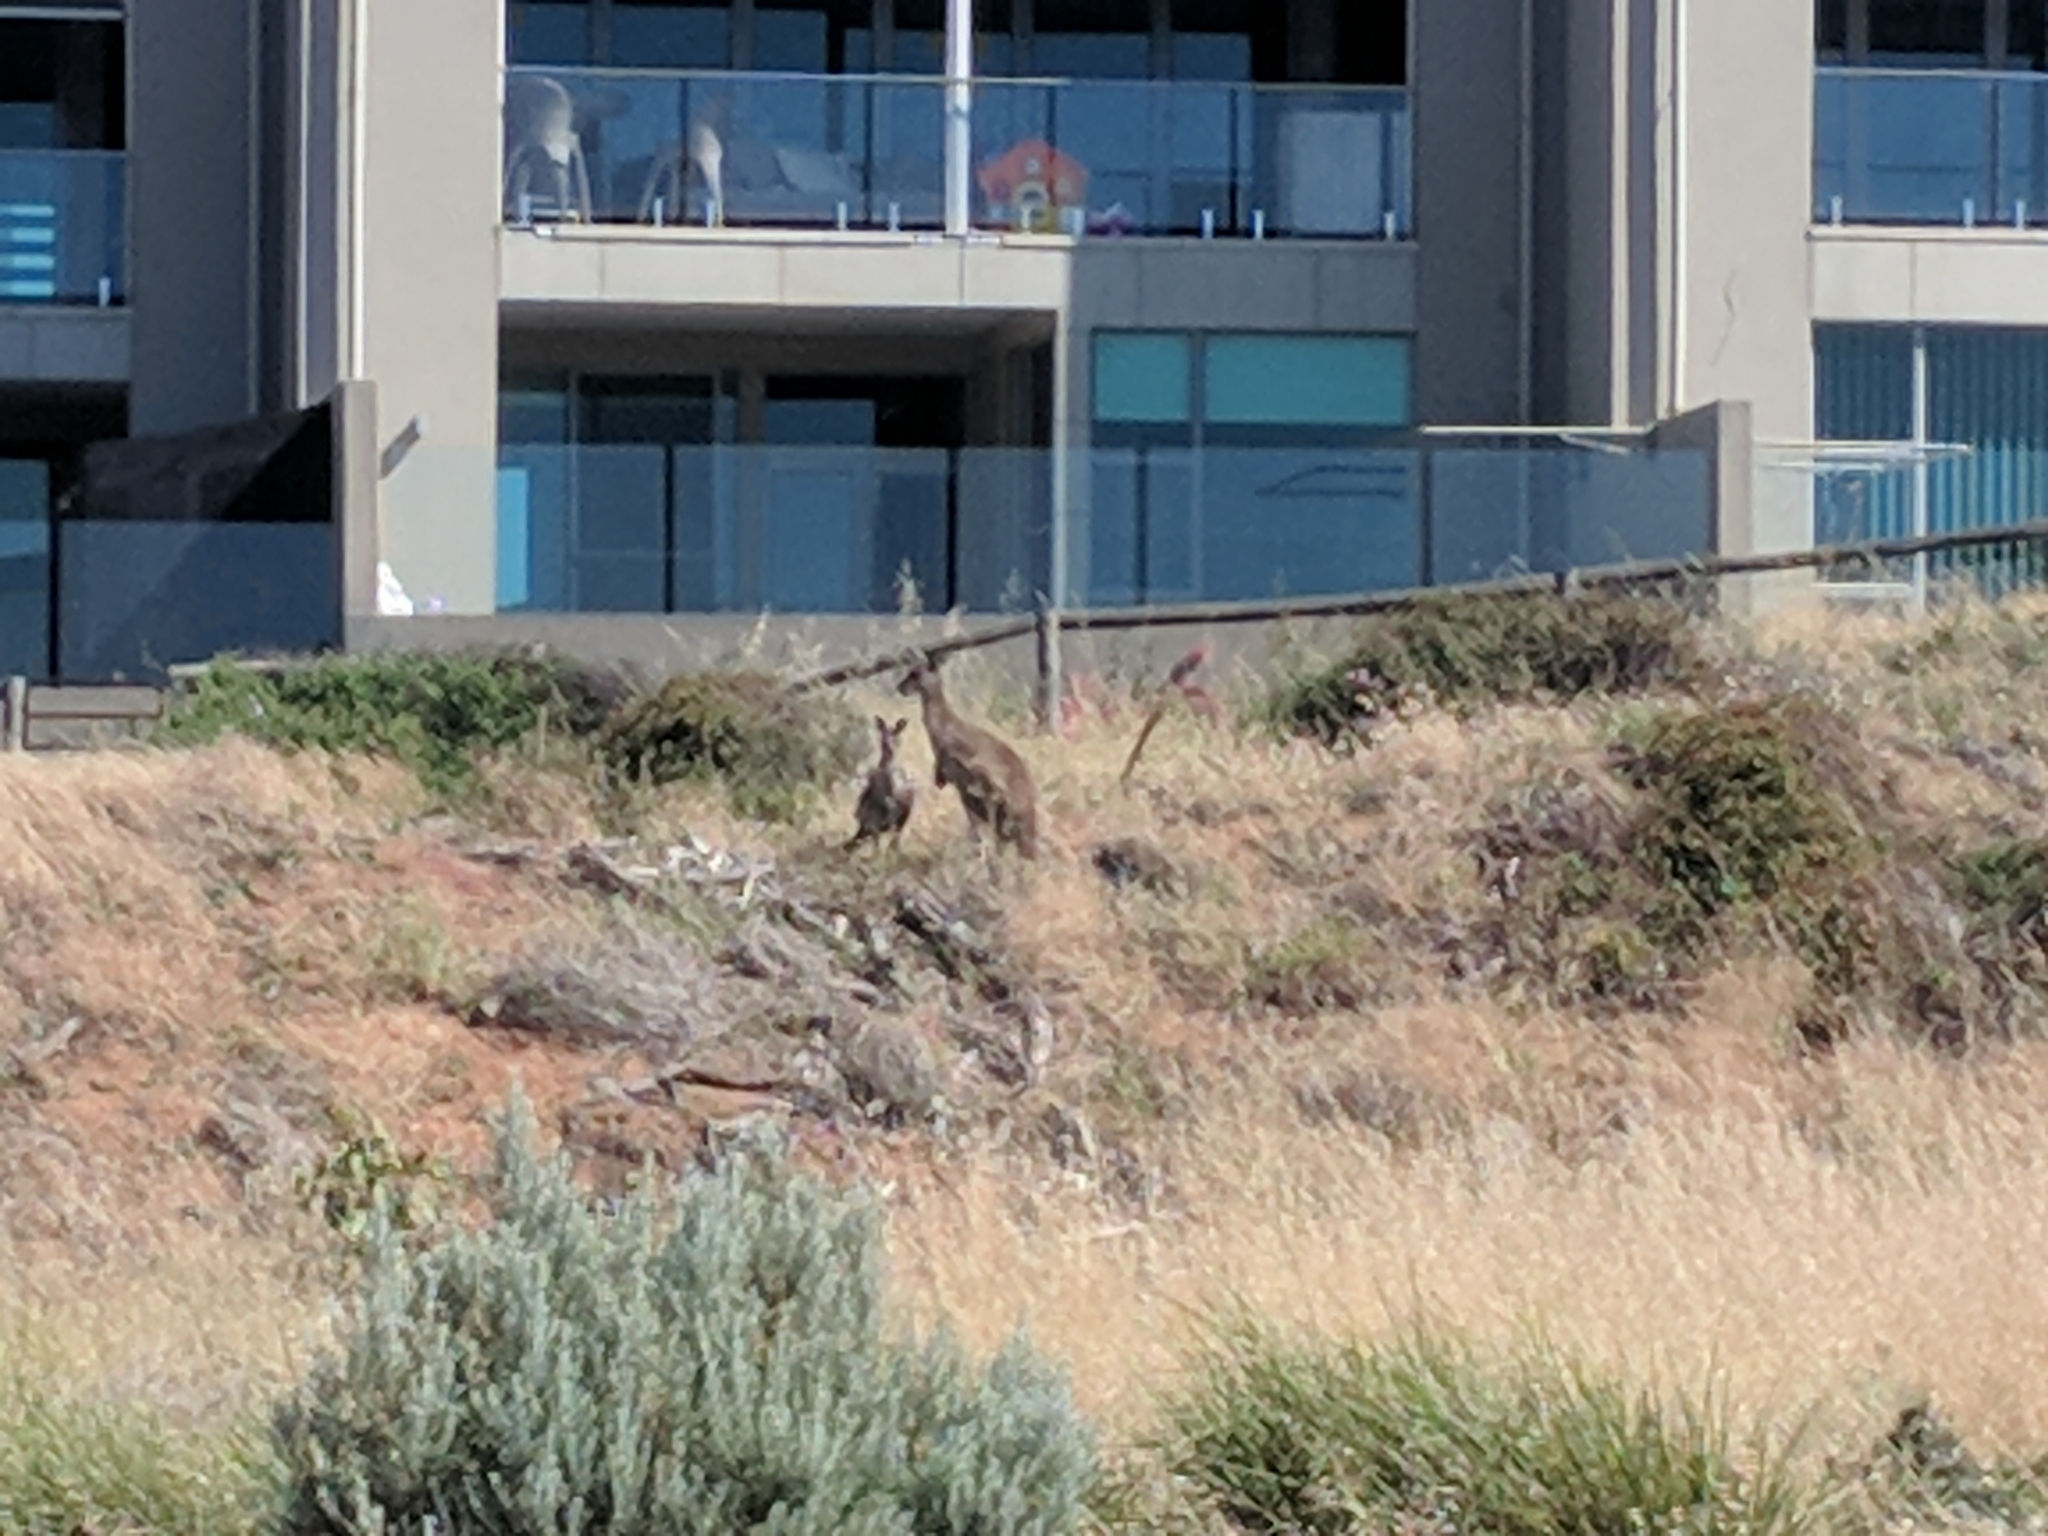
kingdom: Animalia
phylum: Chordata
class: Mammalia
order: Diprotodontia
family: Macropodidae
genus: Macropus
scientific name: Macropus fuliginosus
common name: Western grey kangaroo
